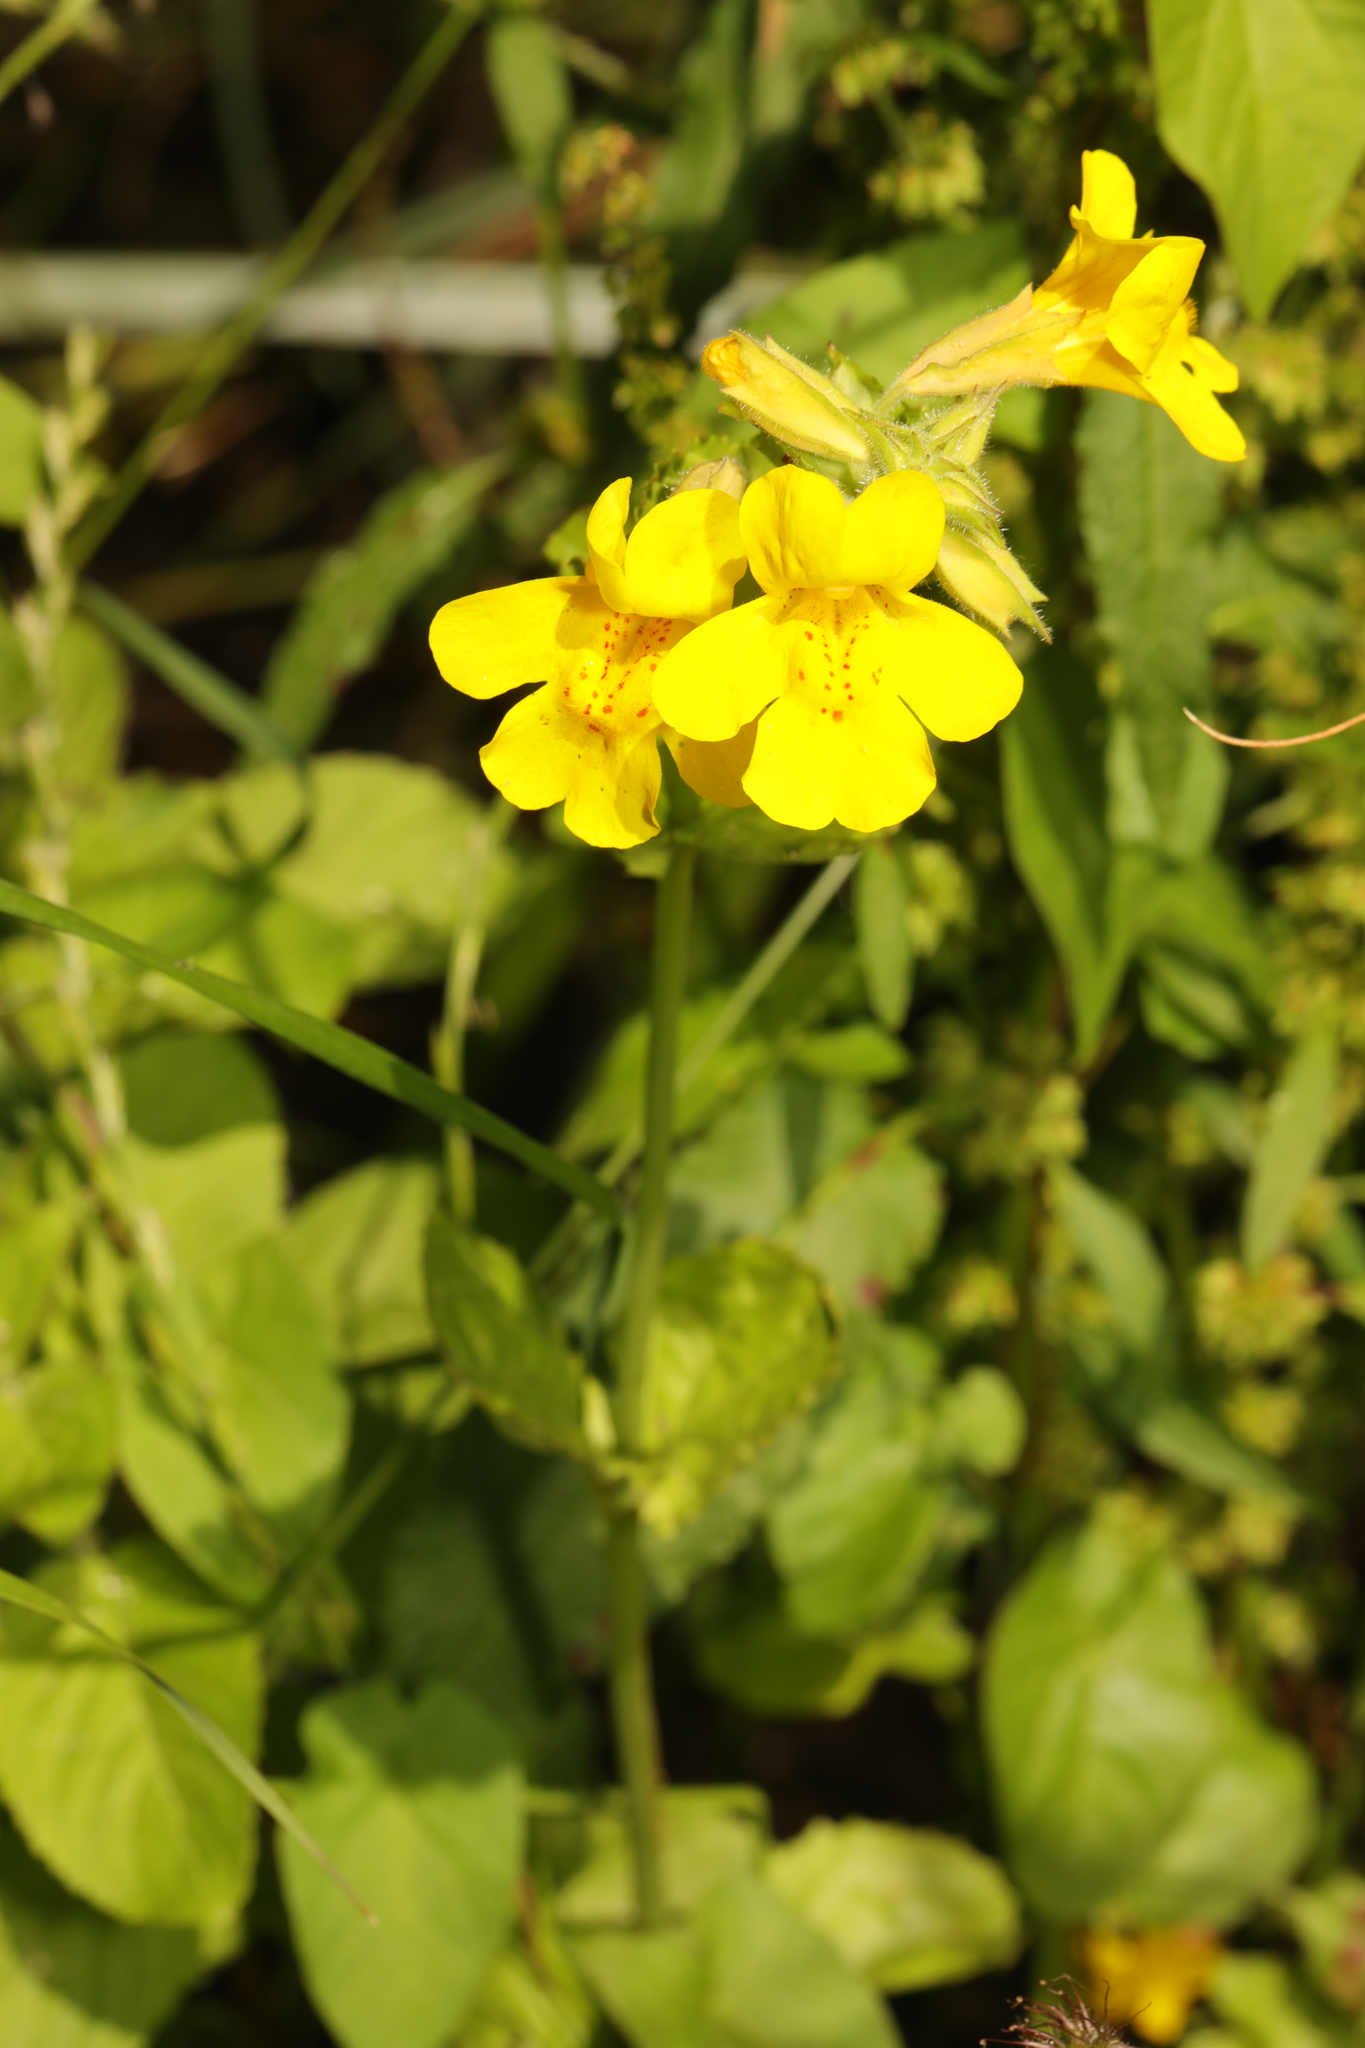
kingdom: Plantae
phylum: Tracheophyta
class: Magnoliopsida
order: Lamiales
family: Phrymaceae
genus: Erythranthe
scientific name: Erythranthe guttata
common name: Monkeyflower
